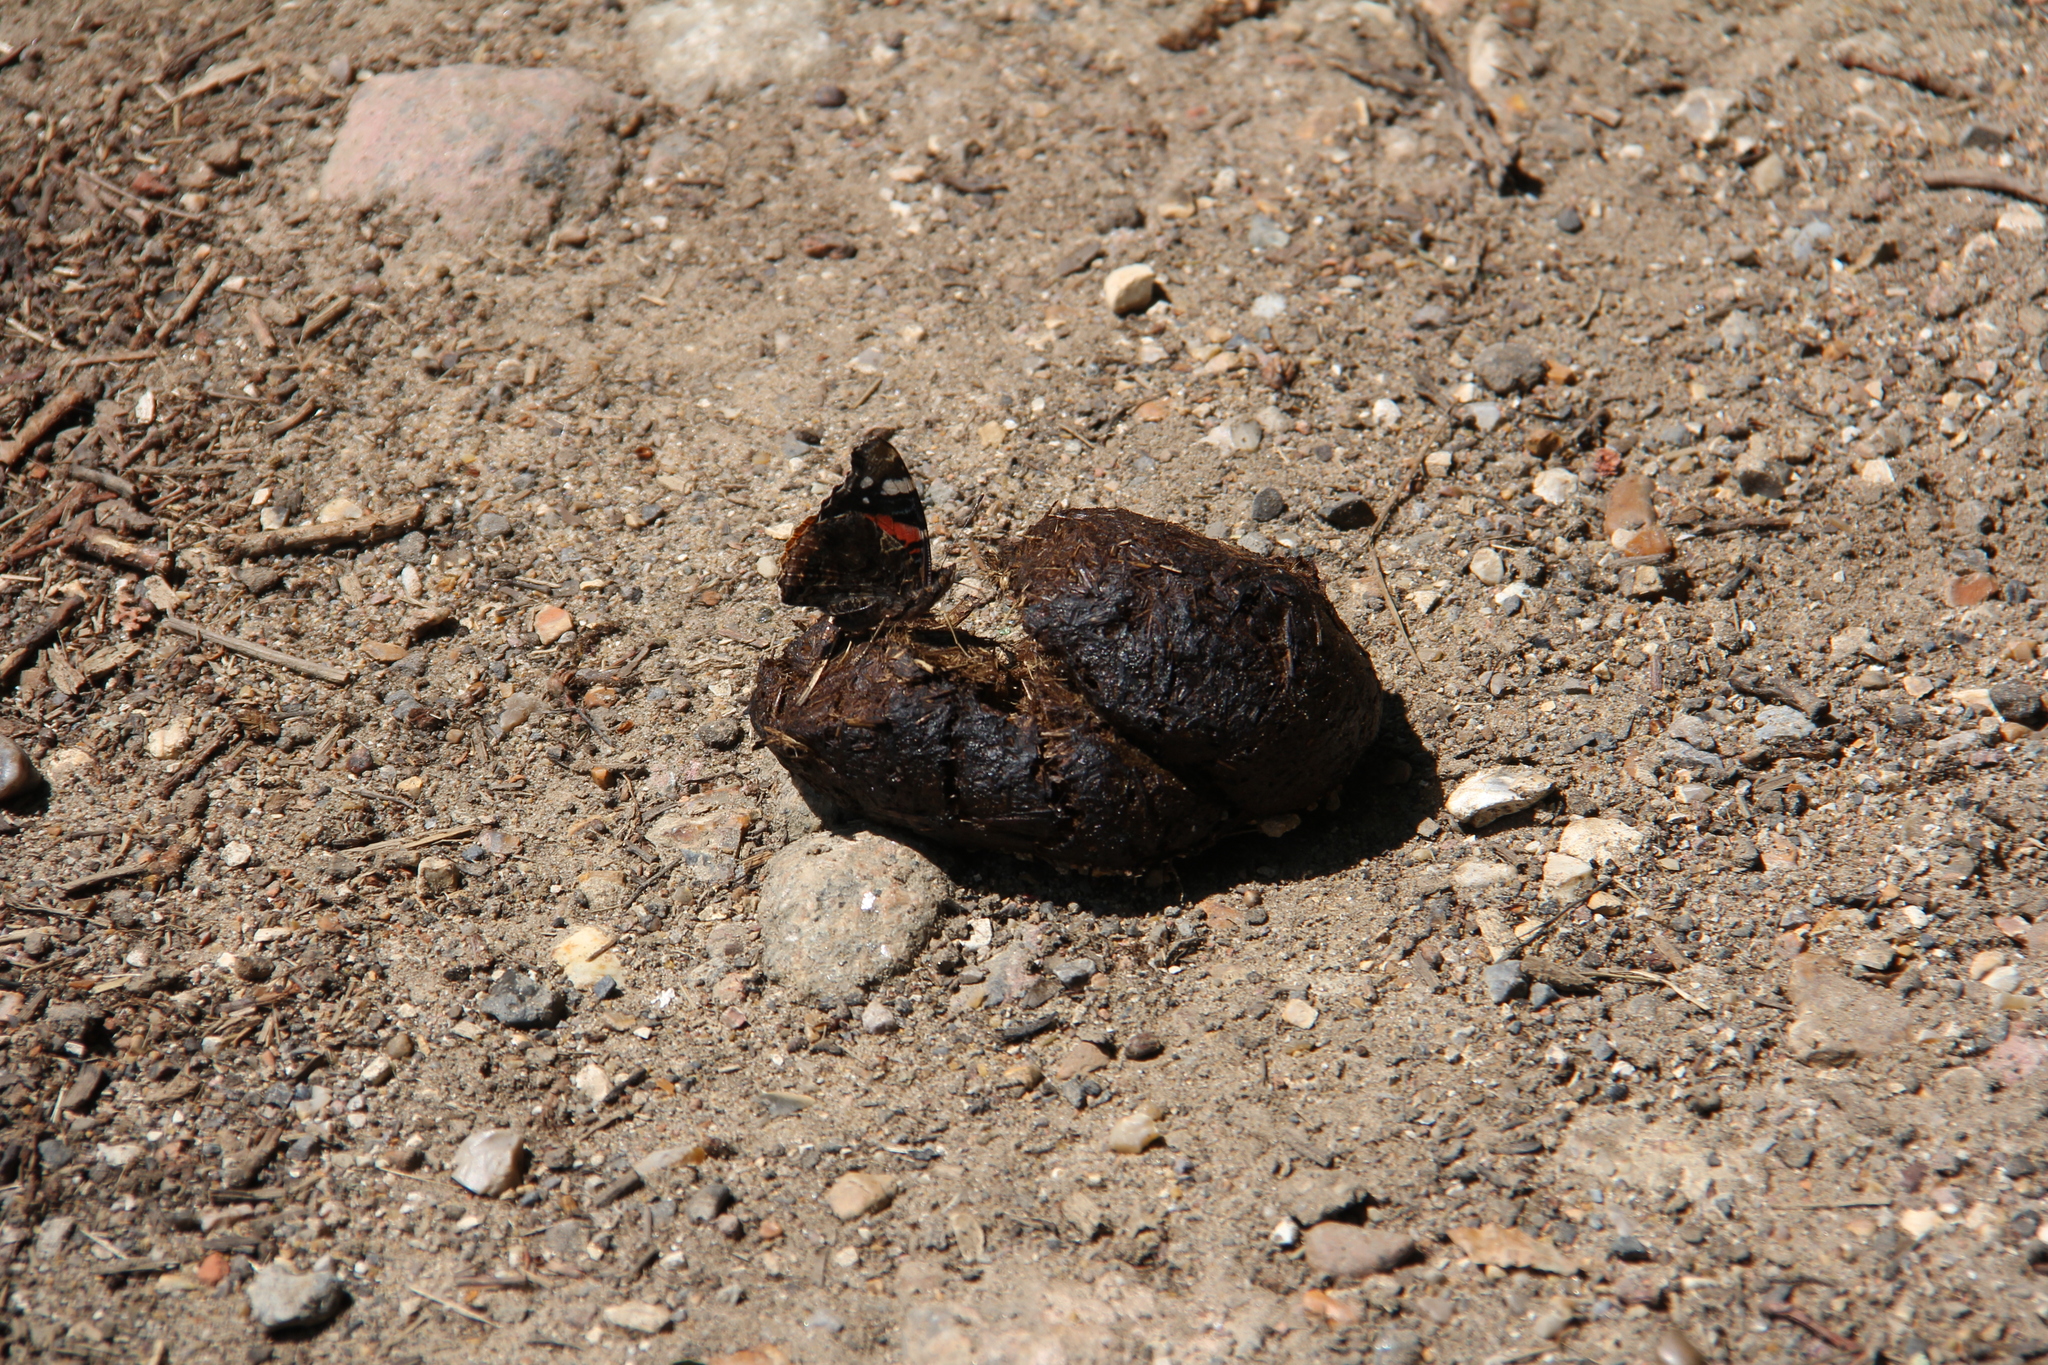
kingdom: Animalia
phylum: Arthropoda
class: Insecta
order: Lepidoptera
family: Nymphalidae
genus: Vanessa
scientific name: Vanessa atalanta
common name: Red admiral
